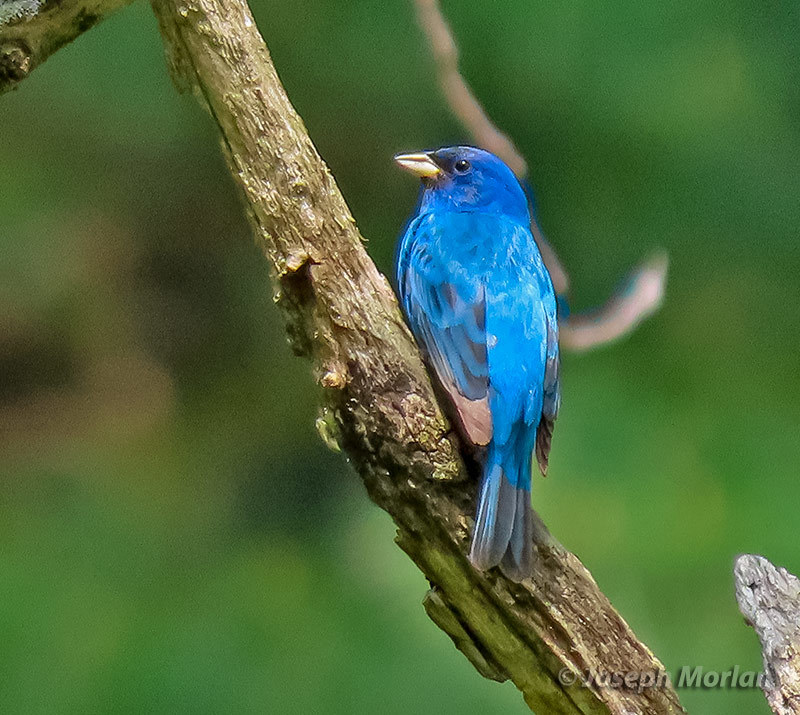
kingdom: Animalia
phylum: Chordata
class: Aves
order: Passeriformes
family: Cardinalidae
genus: Passerina
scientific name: Passerina cyanea
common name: Indigo bunting
